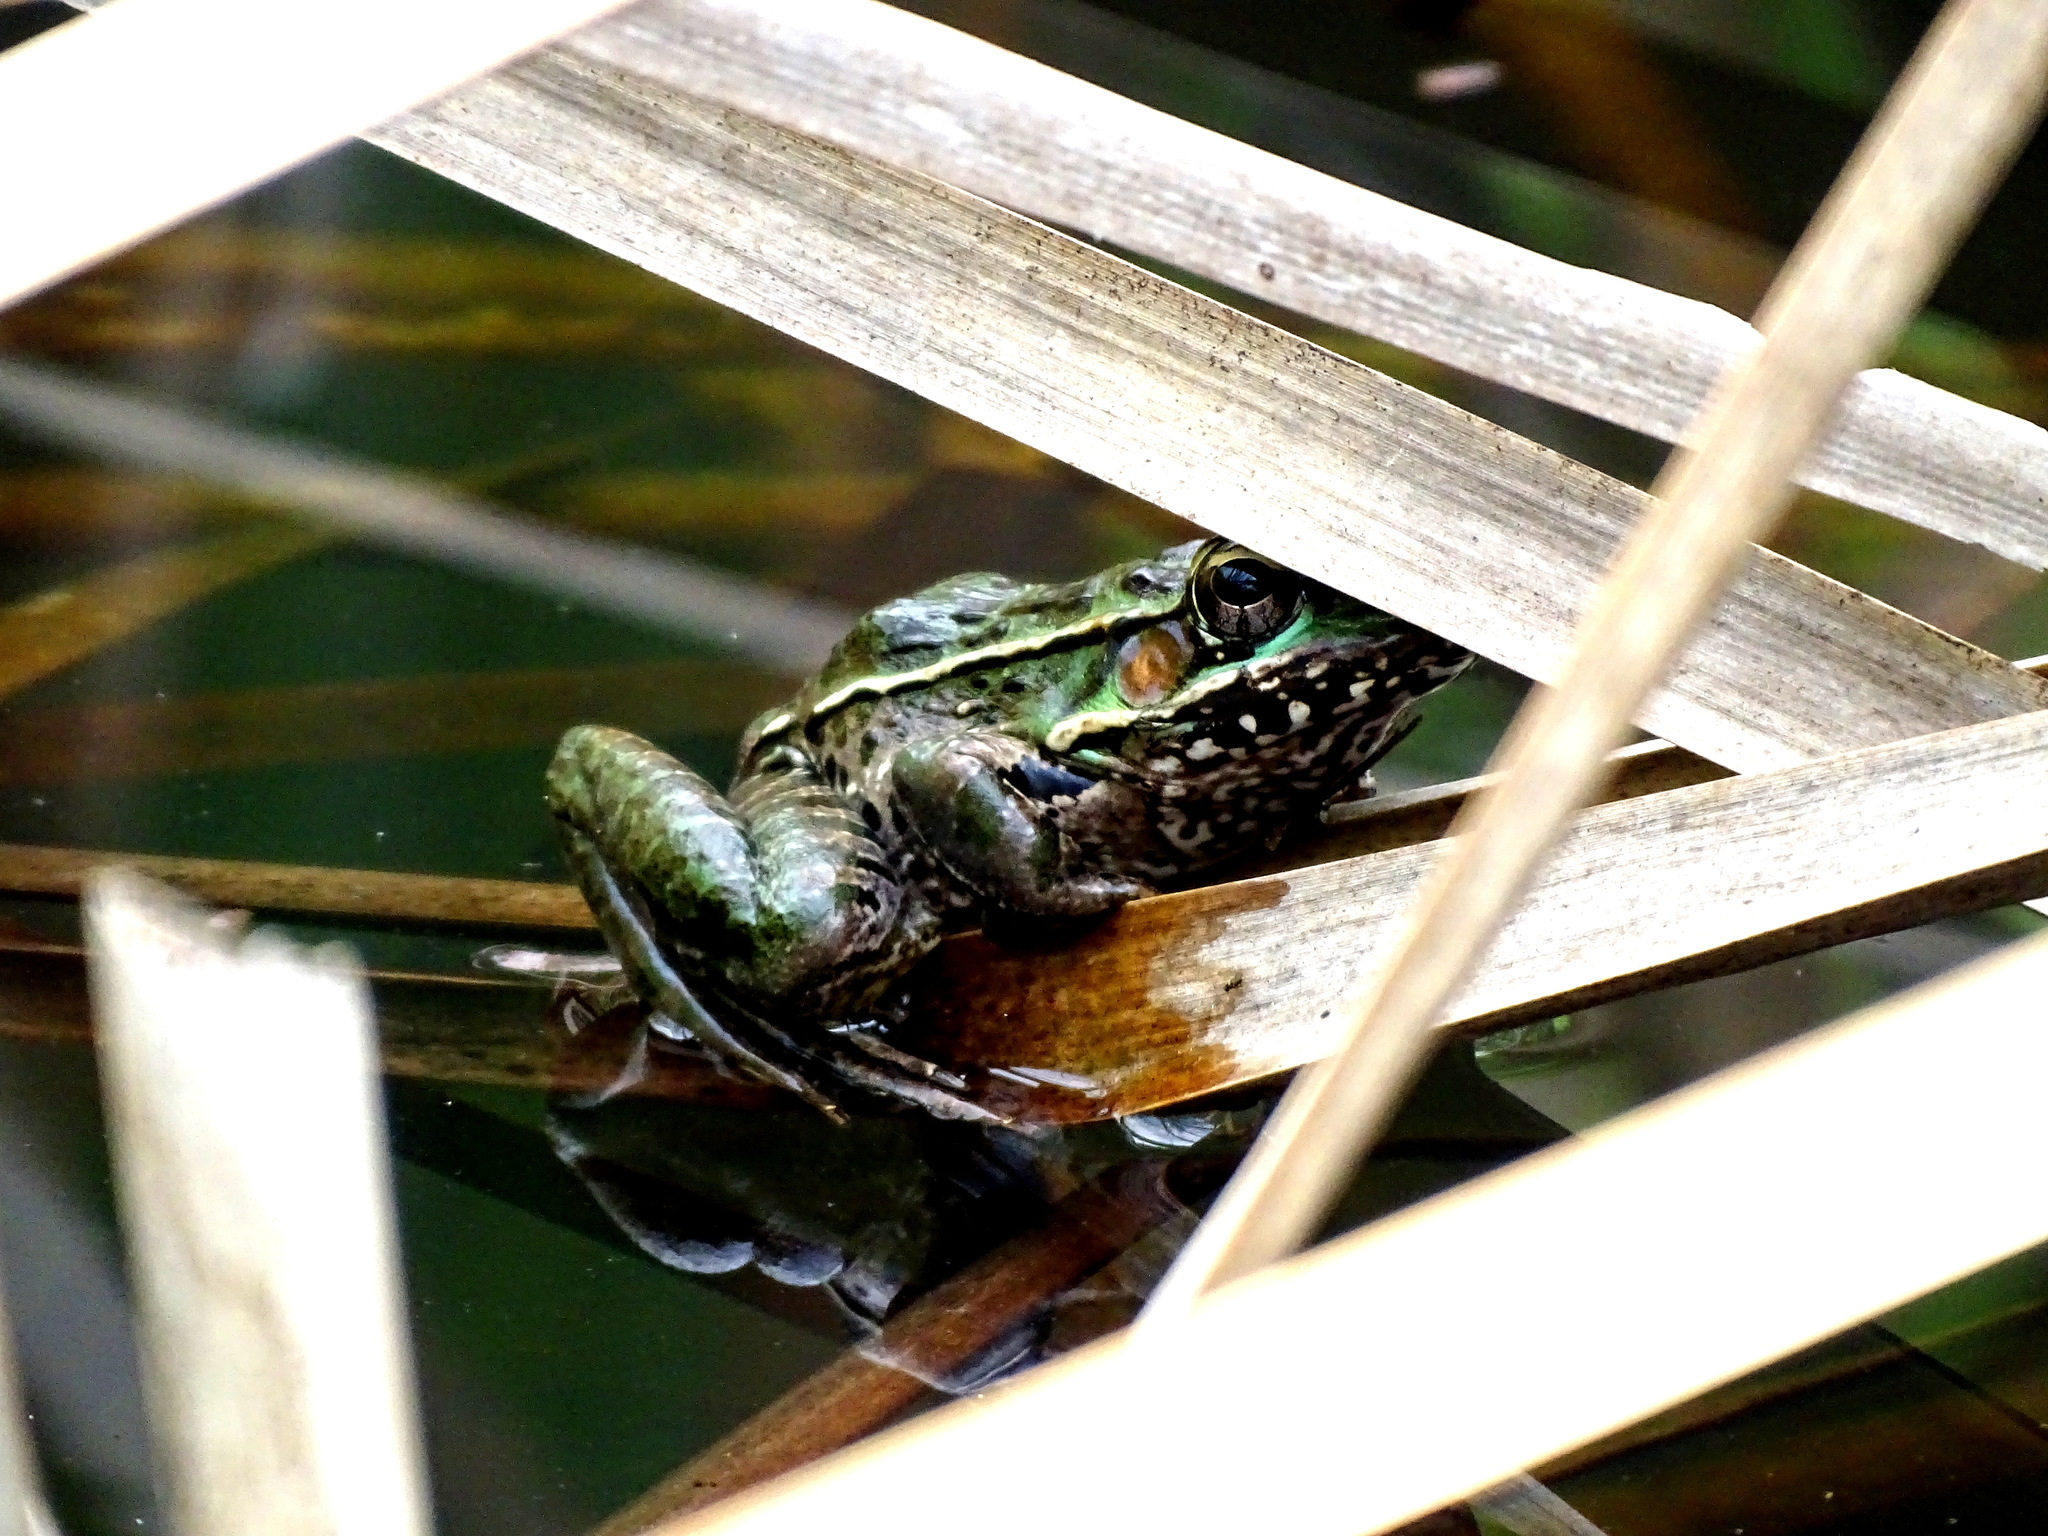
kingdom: Animalia
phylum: Chordata
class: Amphibia
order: Anura
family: Ranidae
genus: Lithobates
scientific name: Lithobates brownorum
